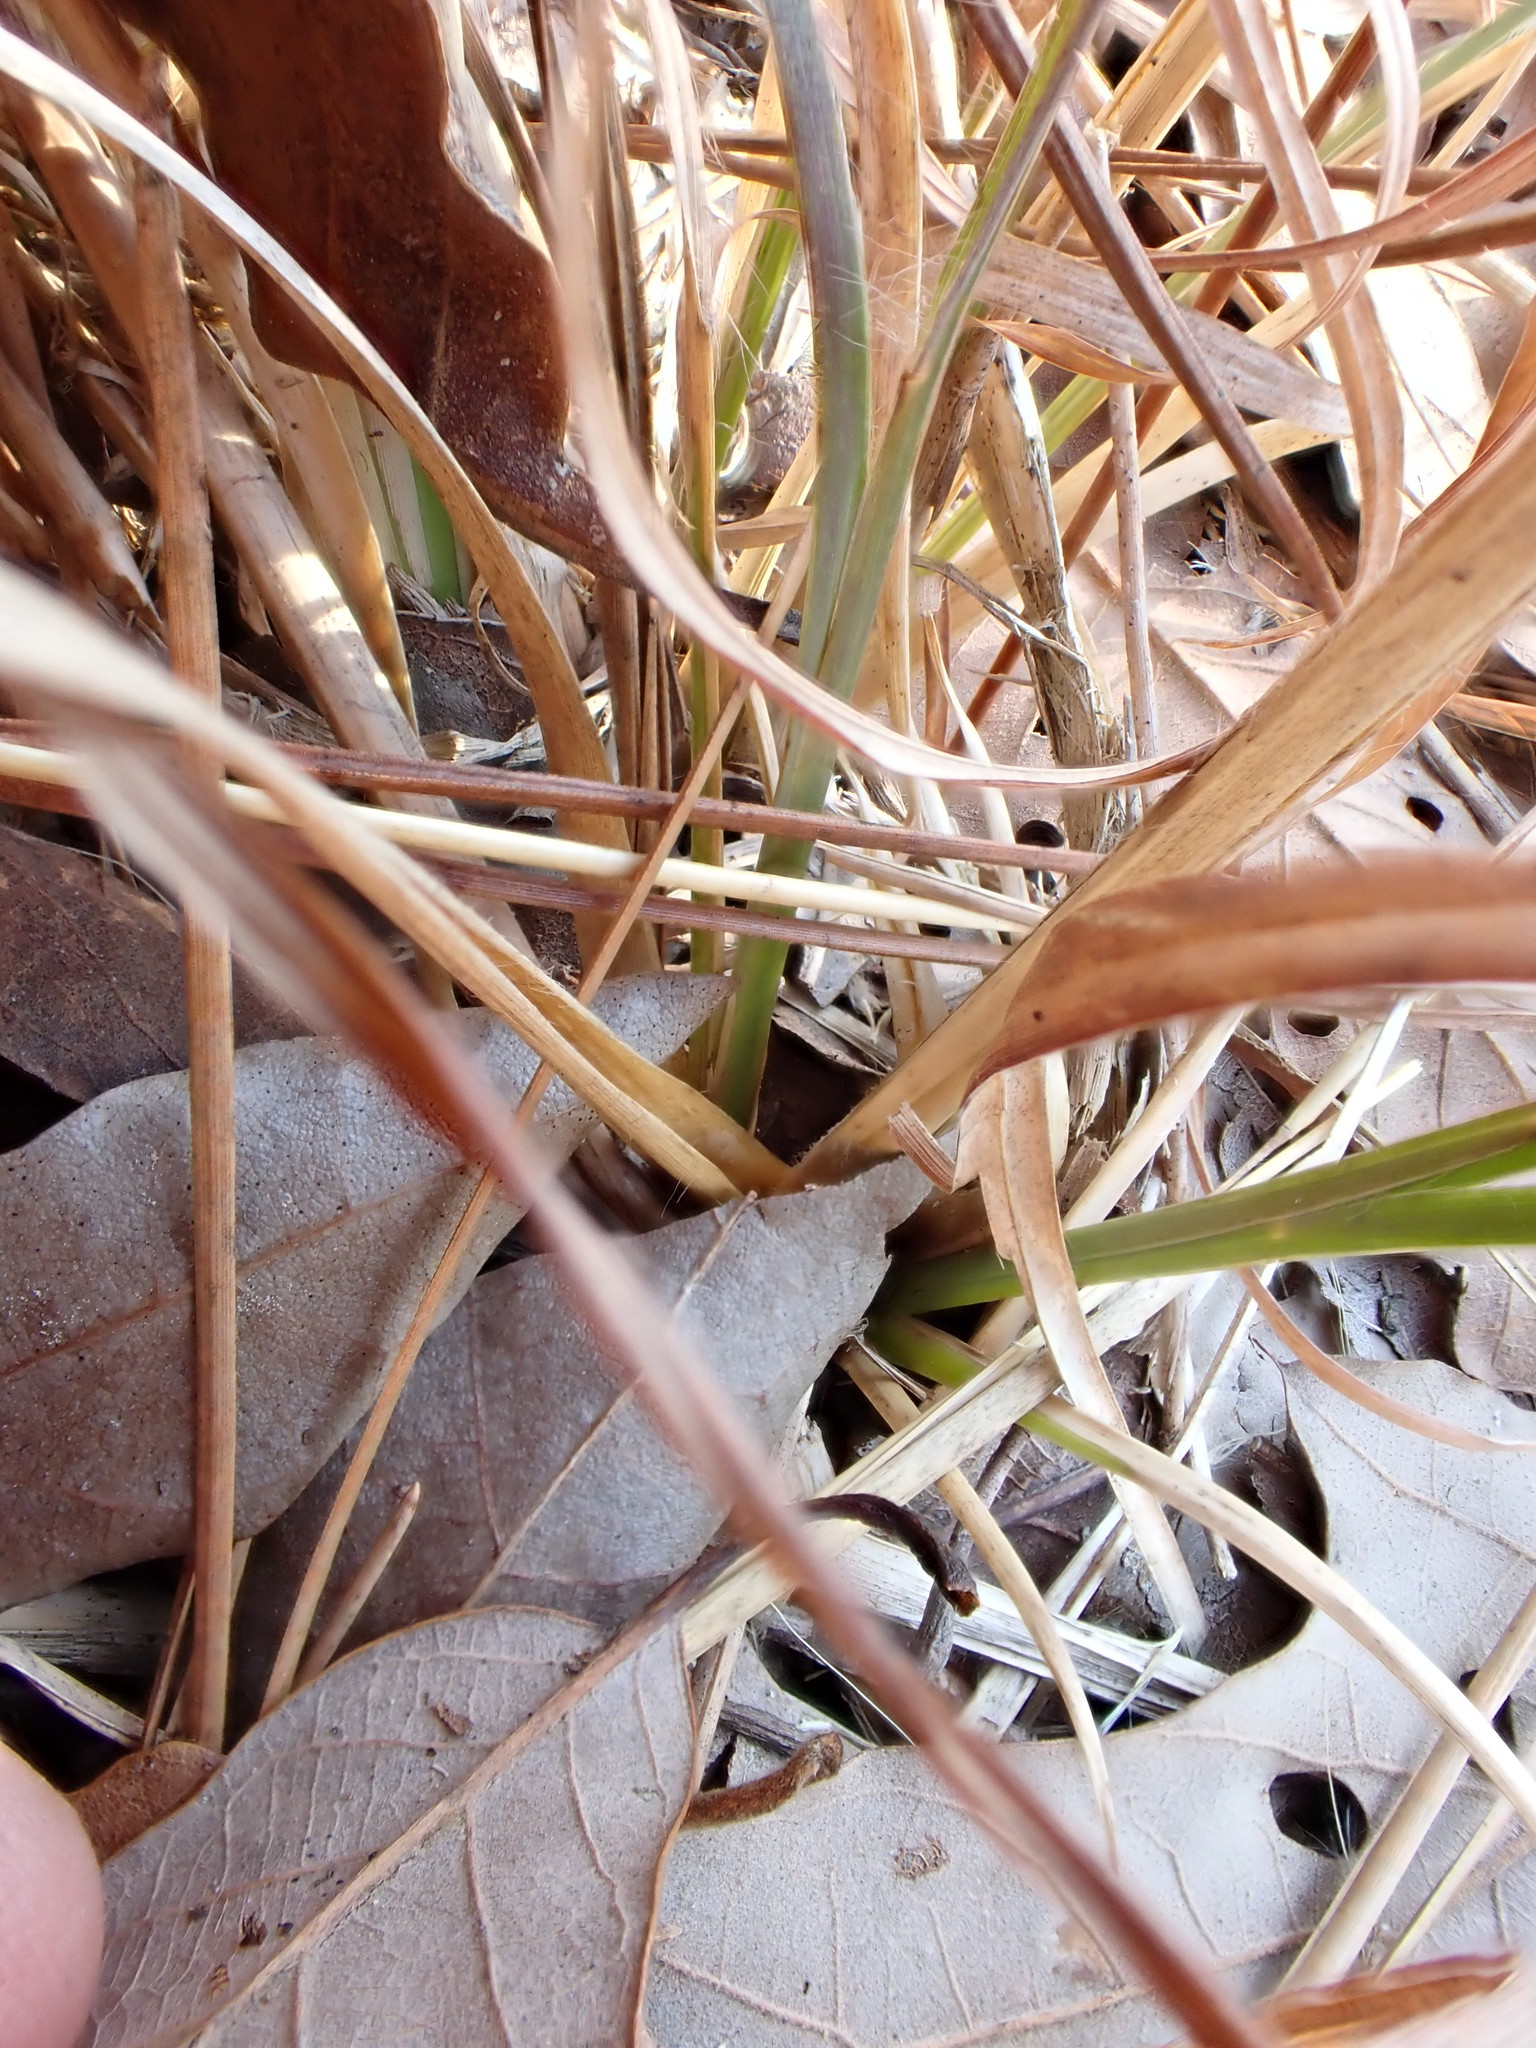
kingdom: Plantae
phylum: Tracheophyta
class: Liliopsida
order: Poales
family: Poaceae
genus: Andropogon
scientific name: Andropogon virginicus
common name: Broomsedge bluestem
